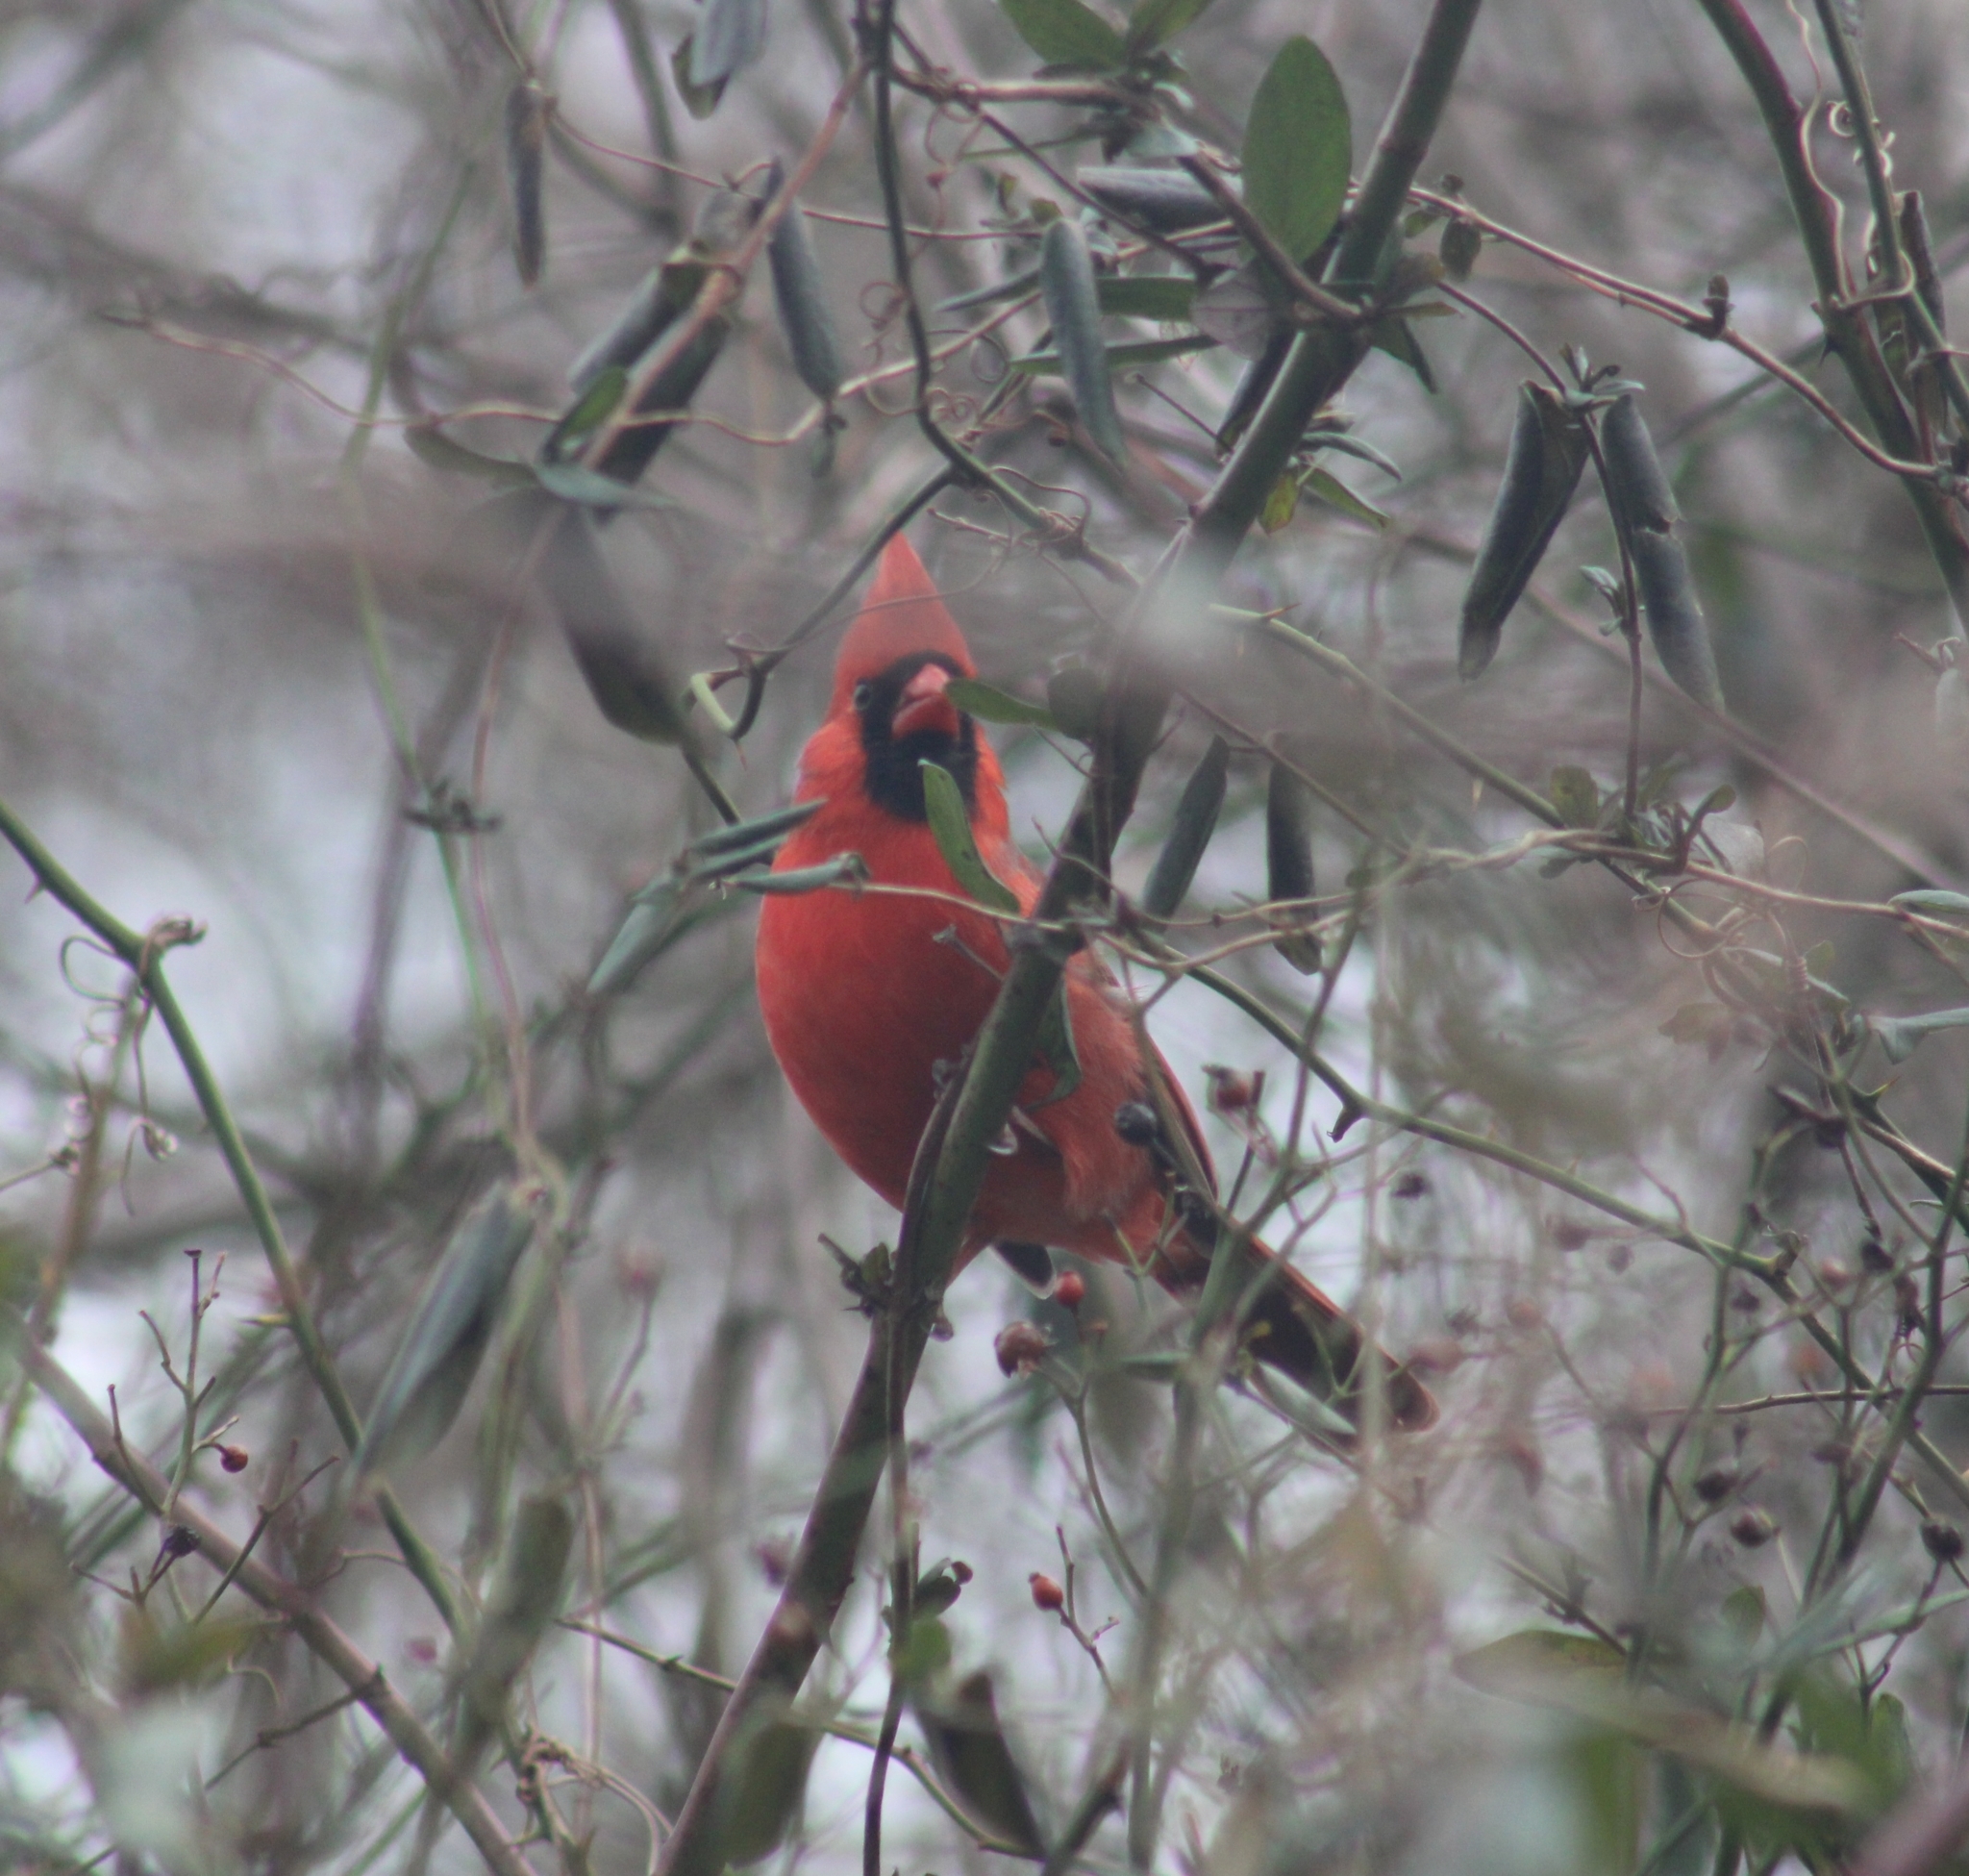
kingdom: Animalia
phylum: Chordata
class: Aves
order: Passeriformes
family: Cardinalidae
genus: Cardinalis
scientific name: Cardinalis cardinalis
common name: Northern cardinal
